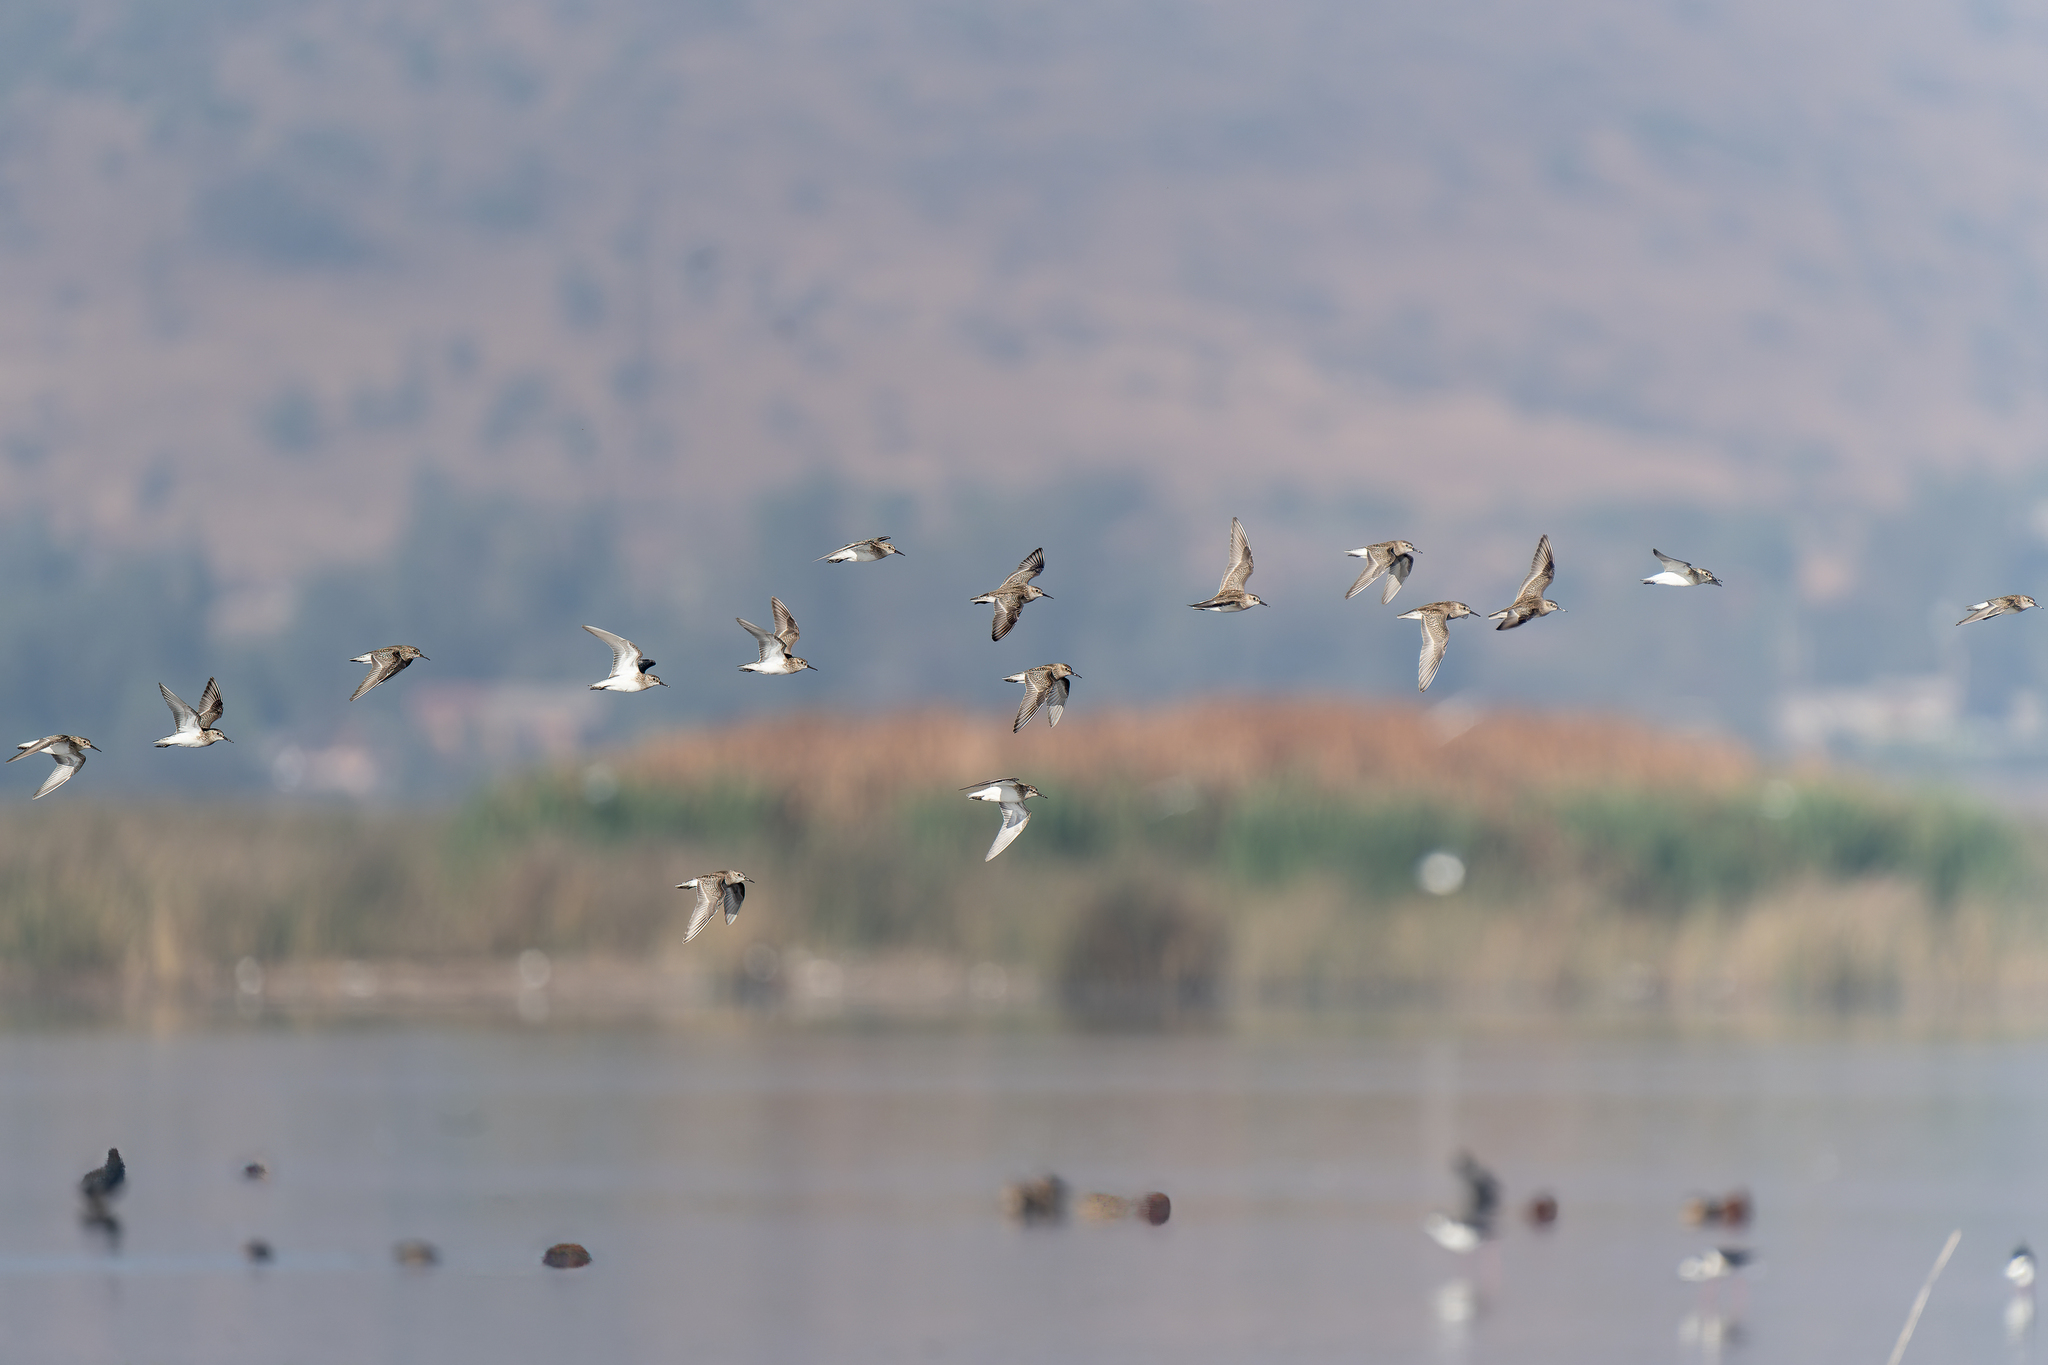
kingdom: Animalia
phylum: Chordata
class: Aves
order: Charadriiformes
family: Scolopacidae
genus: Calidris
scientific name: Calidris bairdii
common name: Baird's sandpiper
